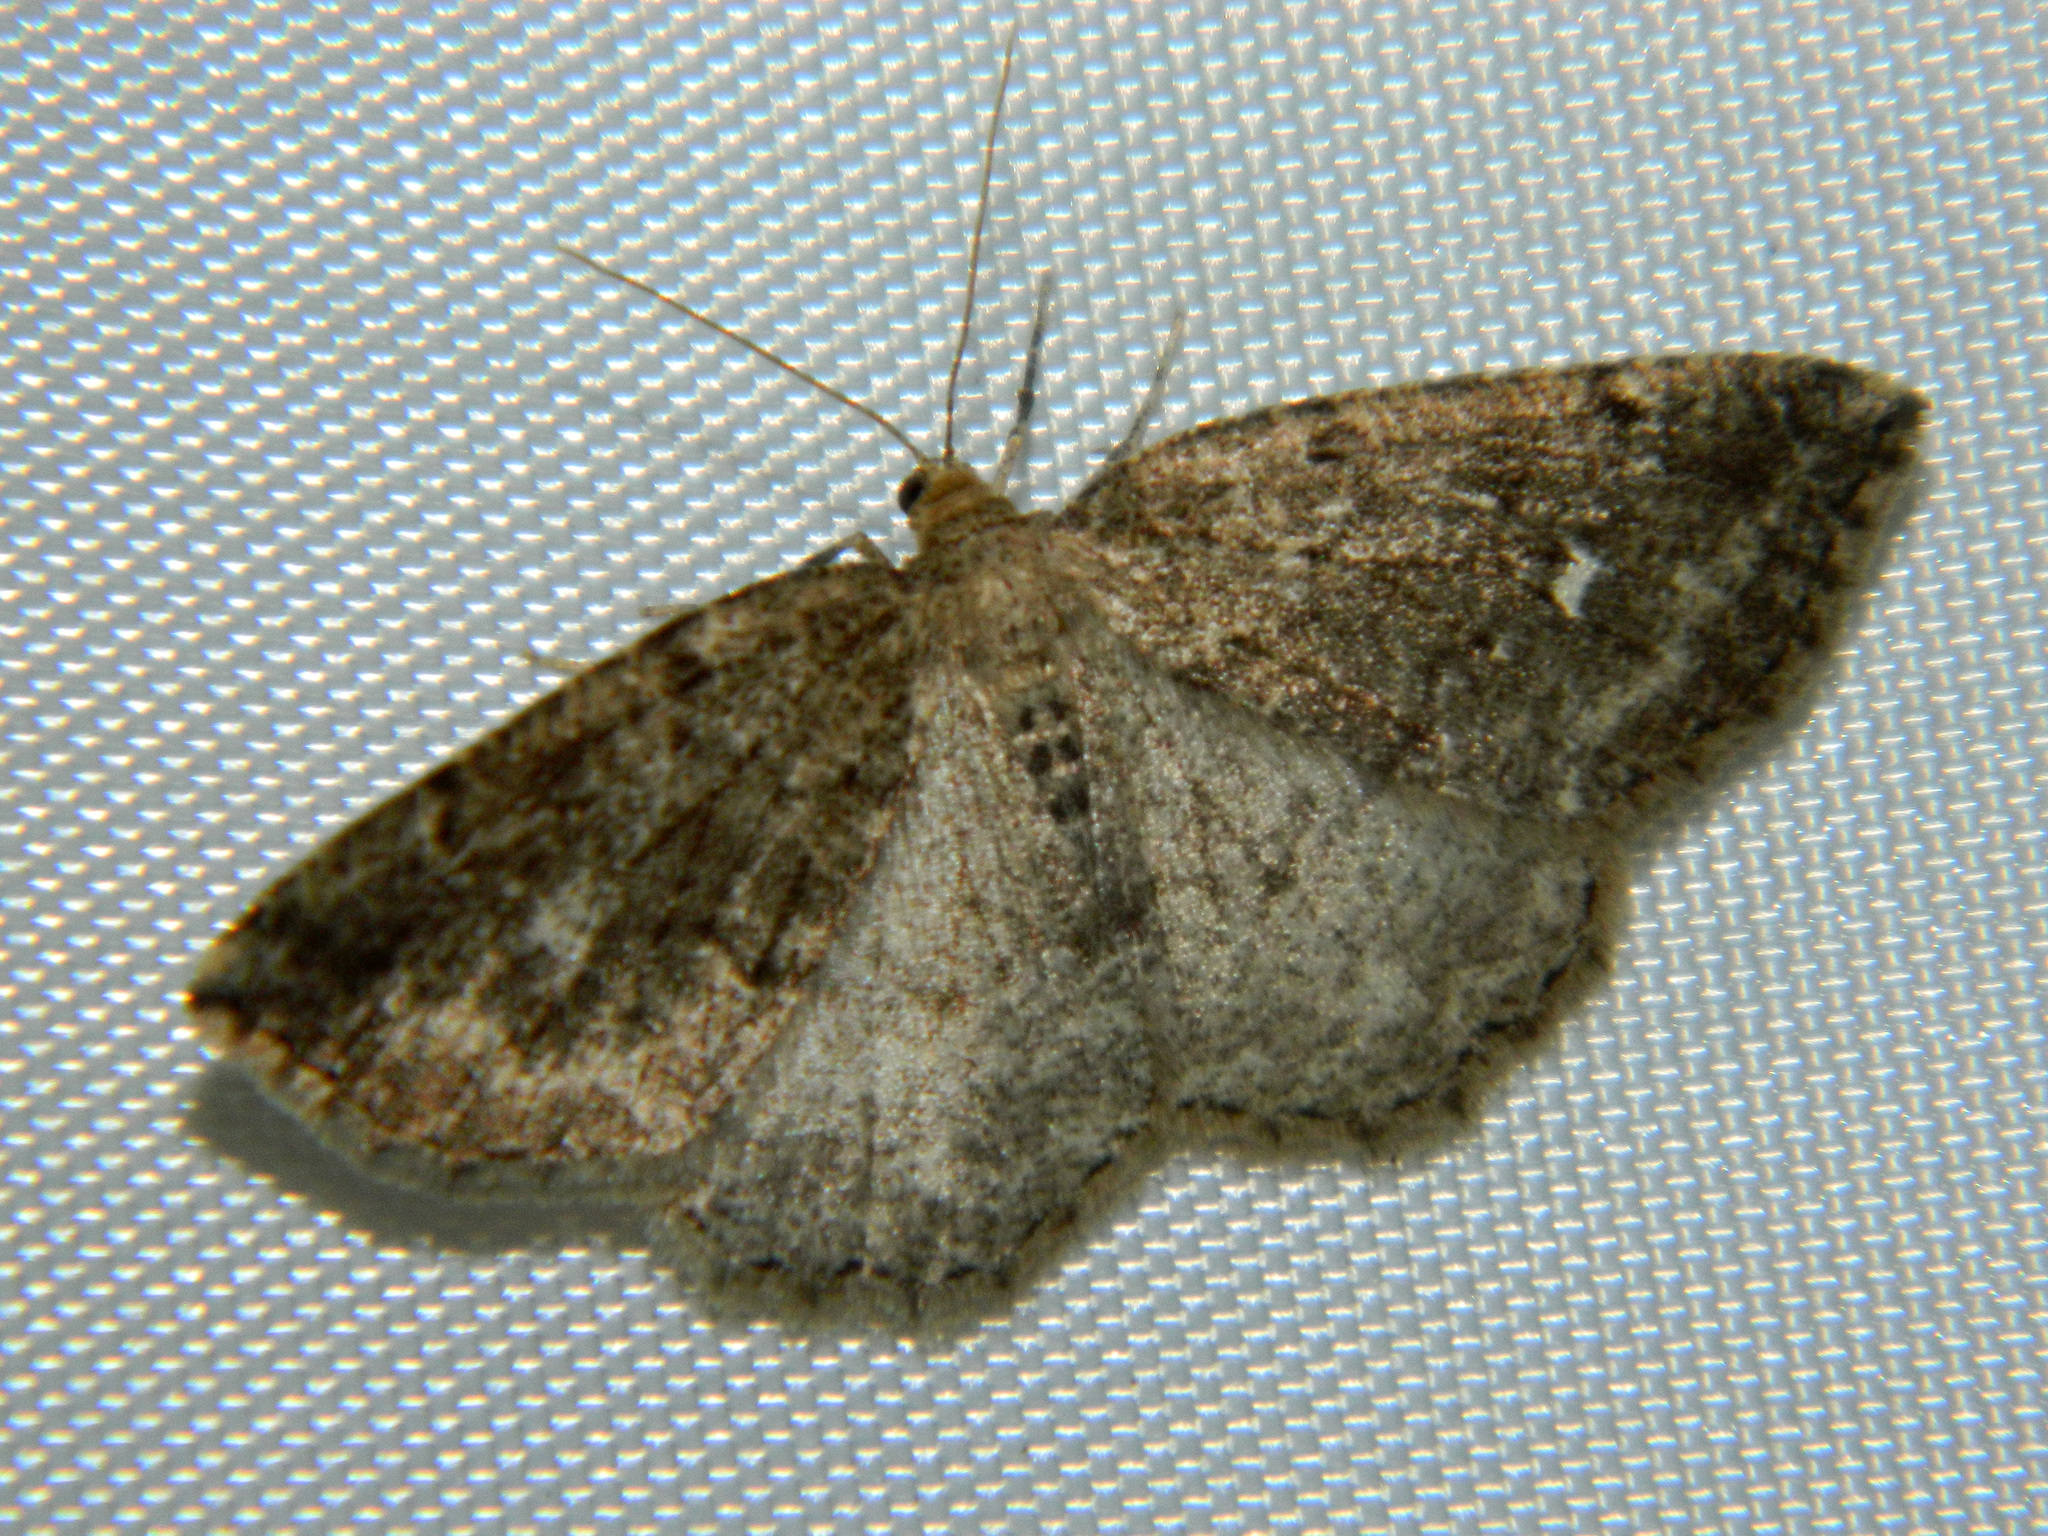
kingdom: Animalia
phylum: Arthropoda
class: Insecta
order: Lepidoptera
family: Geometridae
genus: Homochlodes
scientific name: Homochlodes fritillaria
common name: Pale homochlodes
